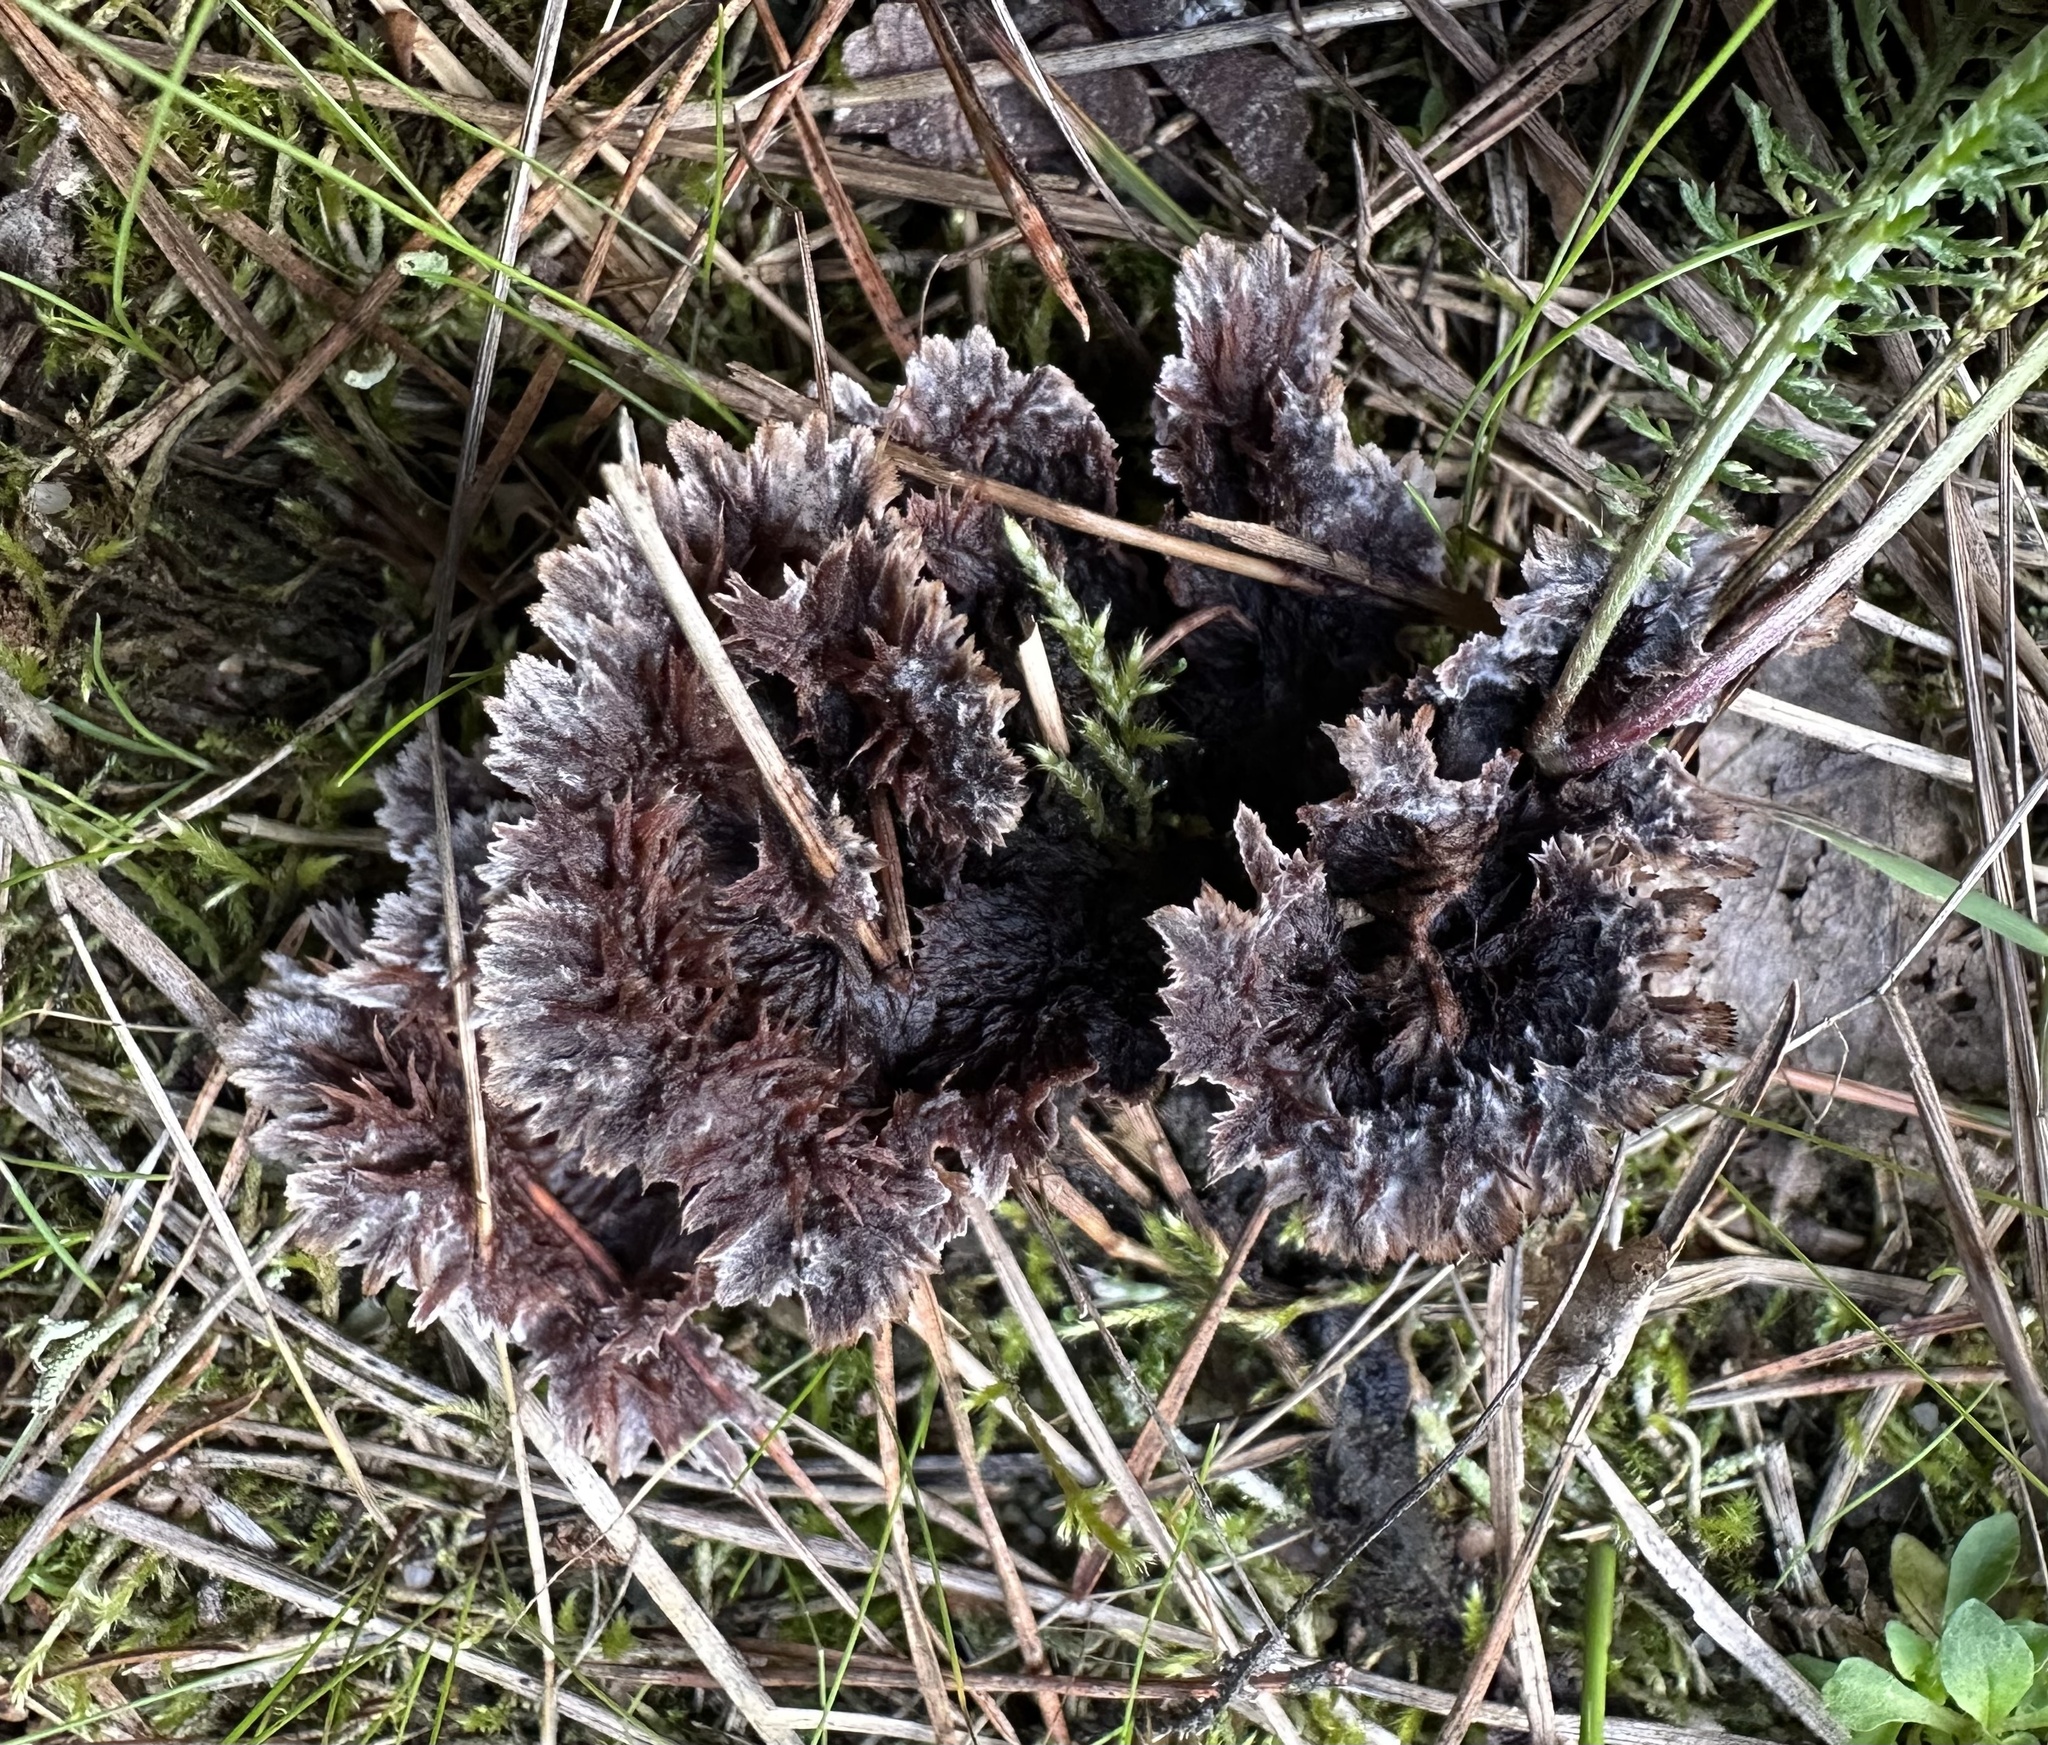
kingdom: Fungi
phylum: Basidiomycota
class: Agaricomycetes
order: Thelephorales
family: Thelephoraceae
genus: Thelephora
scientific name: Thelephora terrestris
